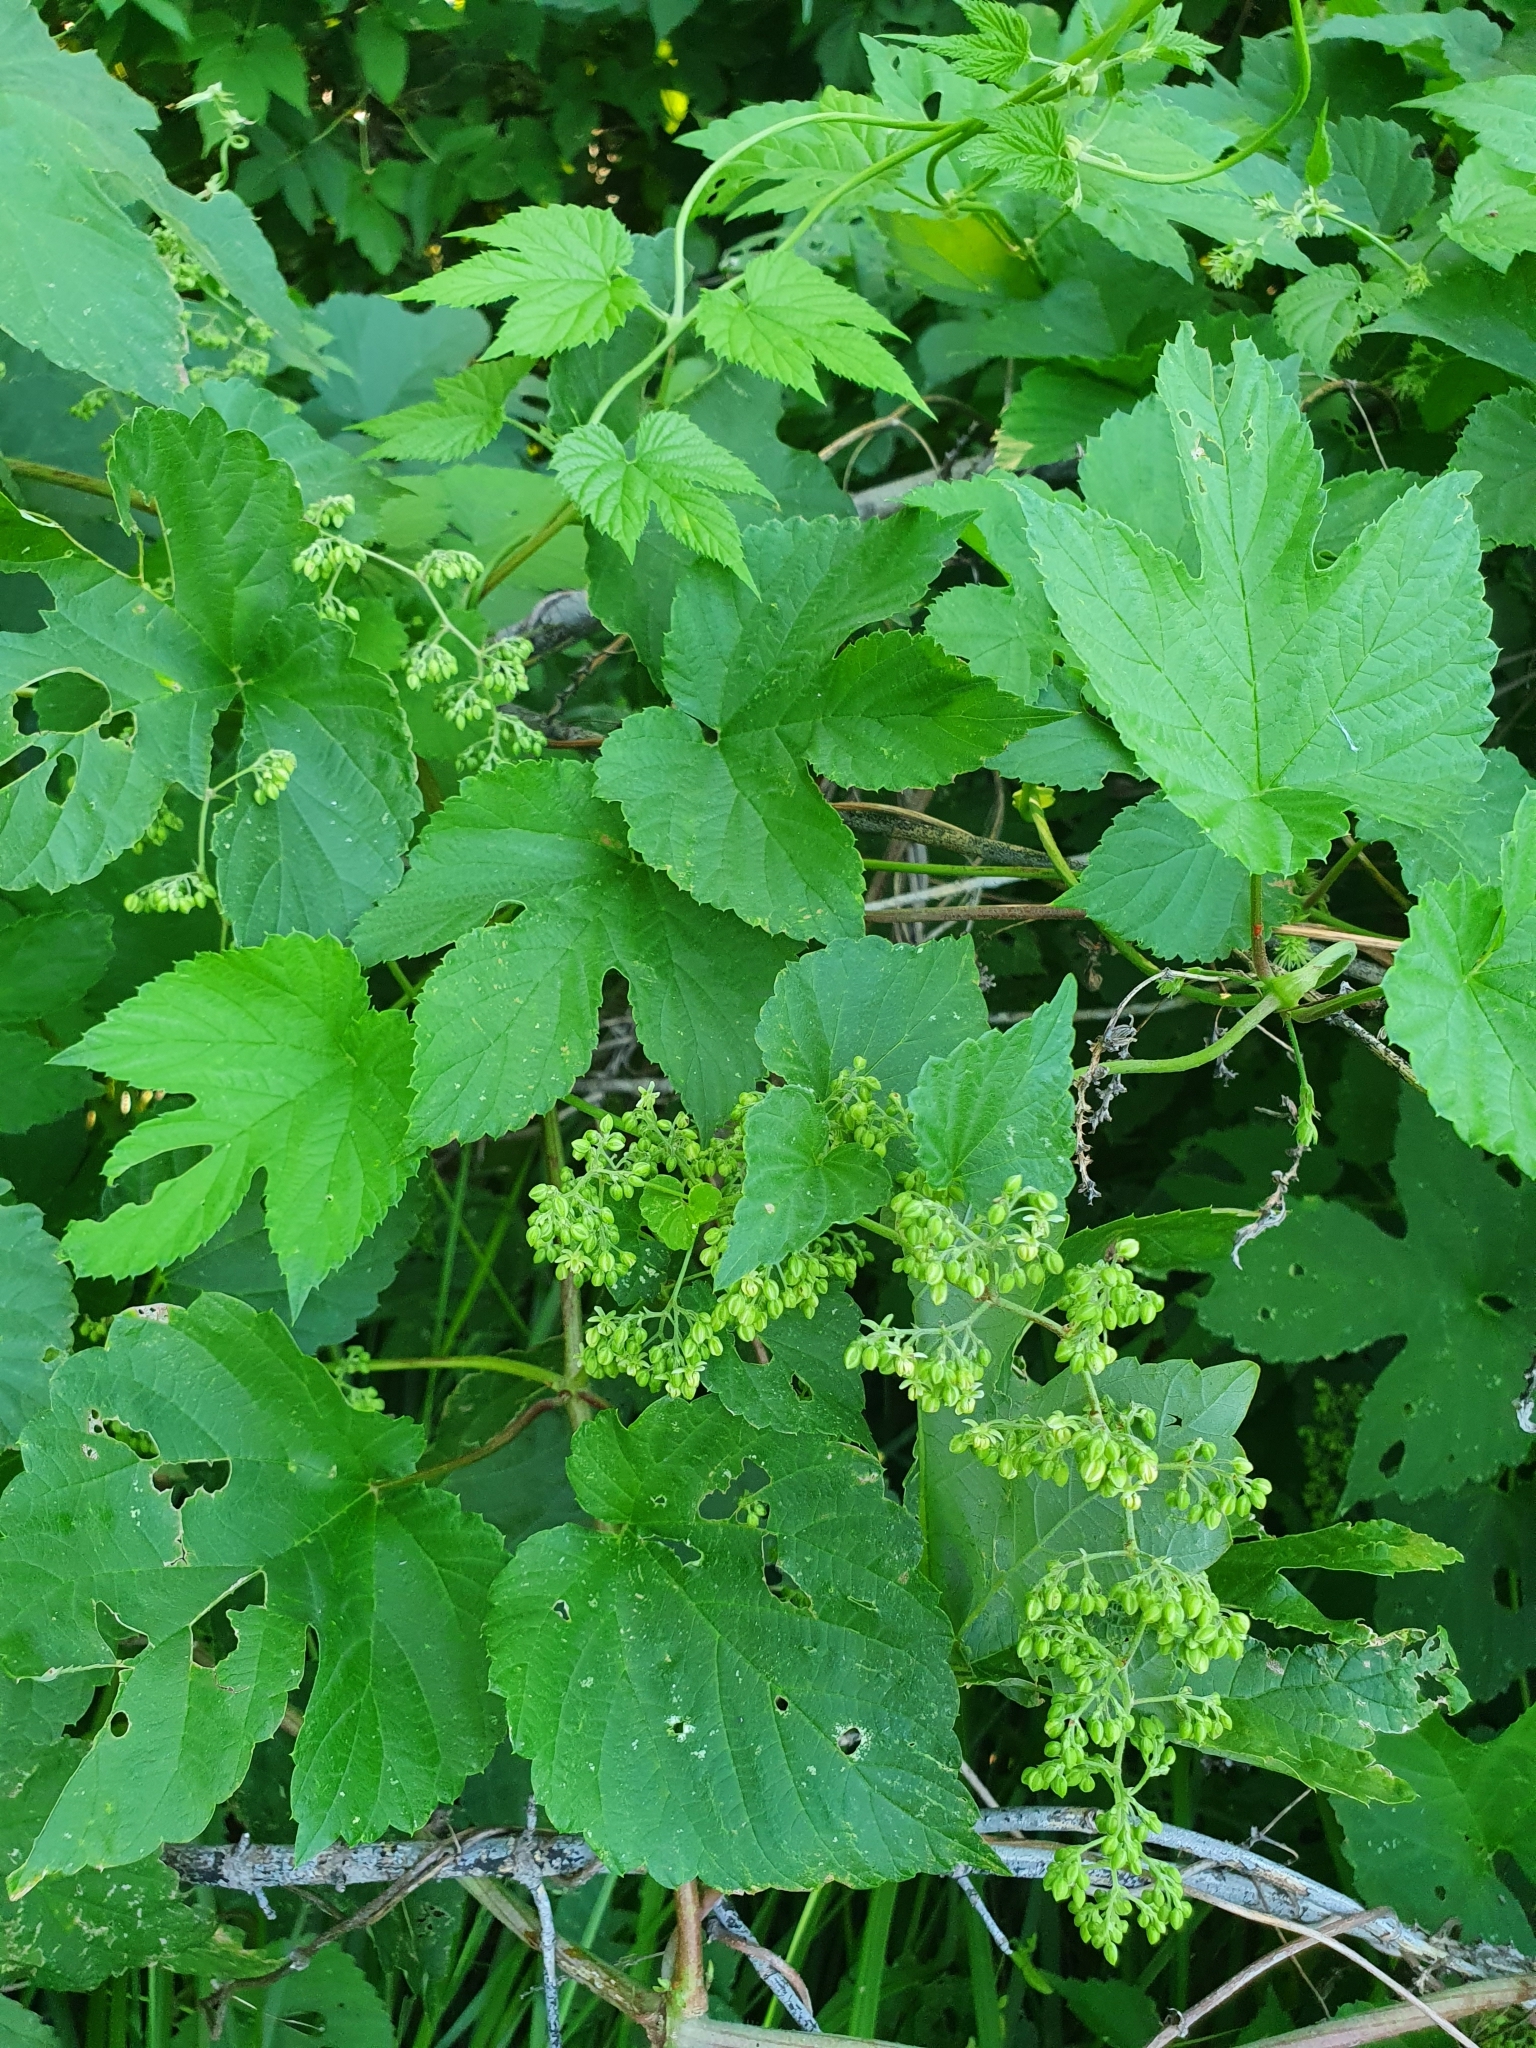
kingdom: Plantae
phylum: Tracheophyta
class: Magnoliopsida
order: Rosales
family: Cannabaceae
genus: Humulus
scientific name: Humulus lupulus
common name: Hop
